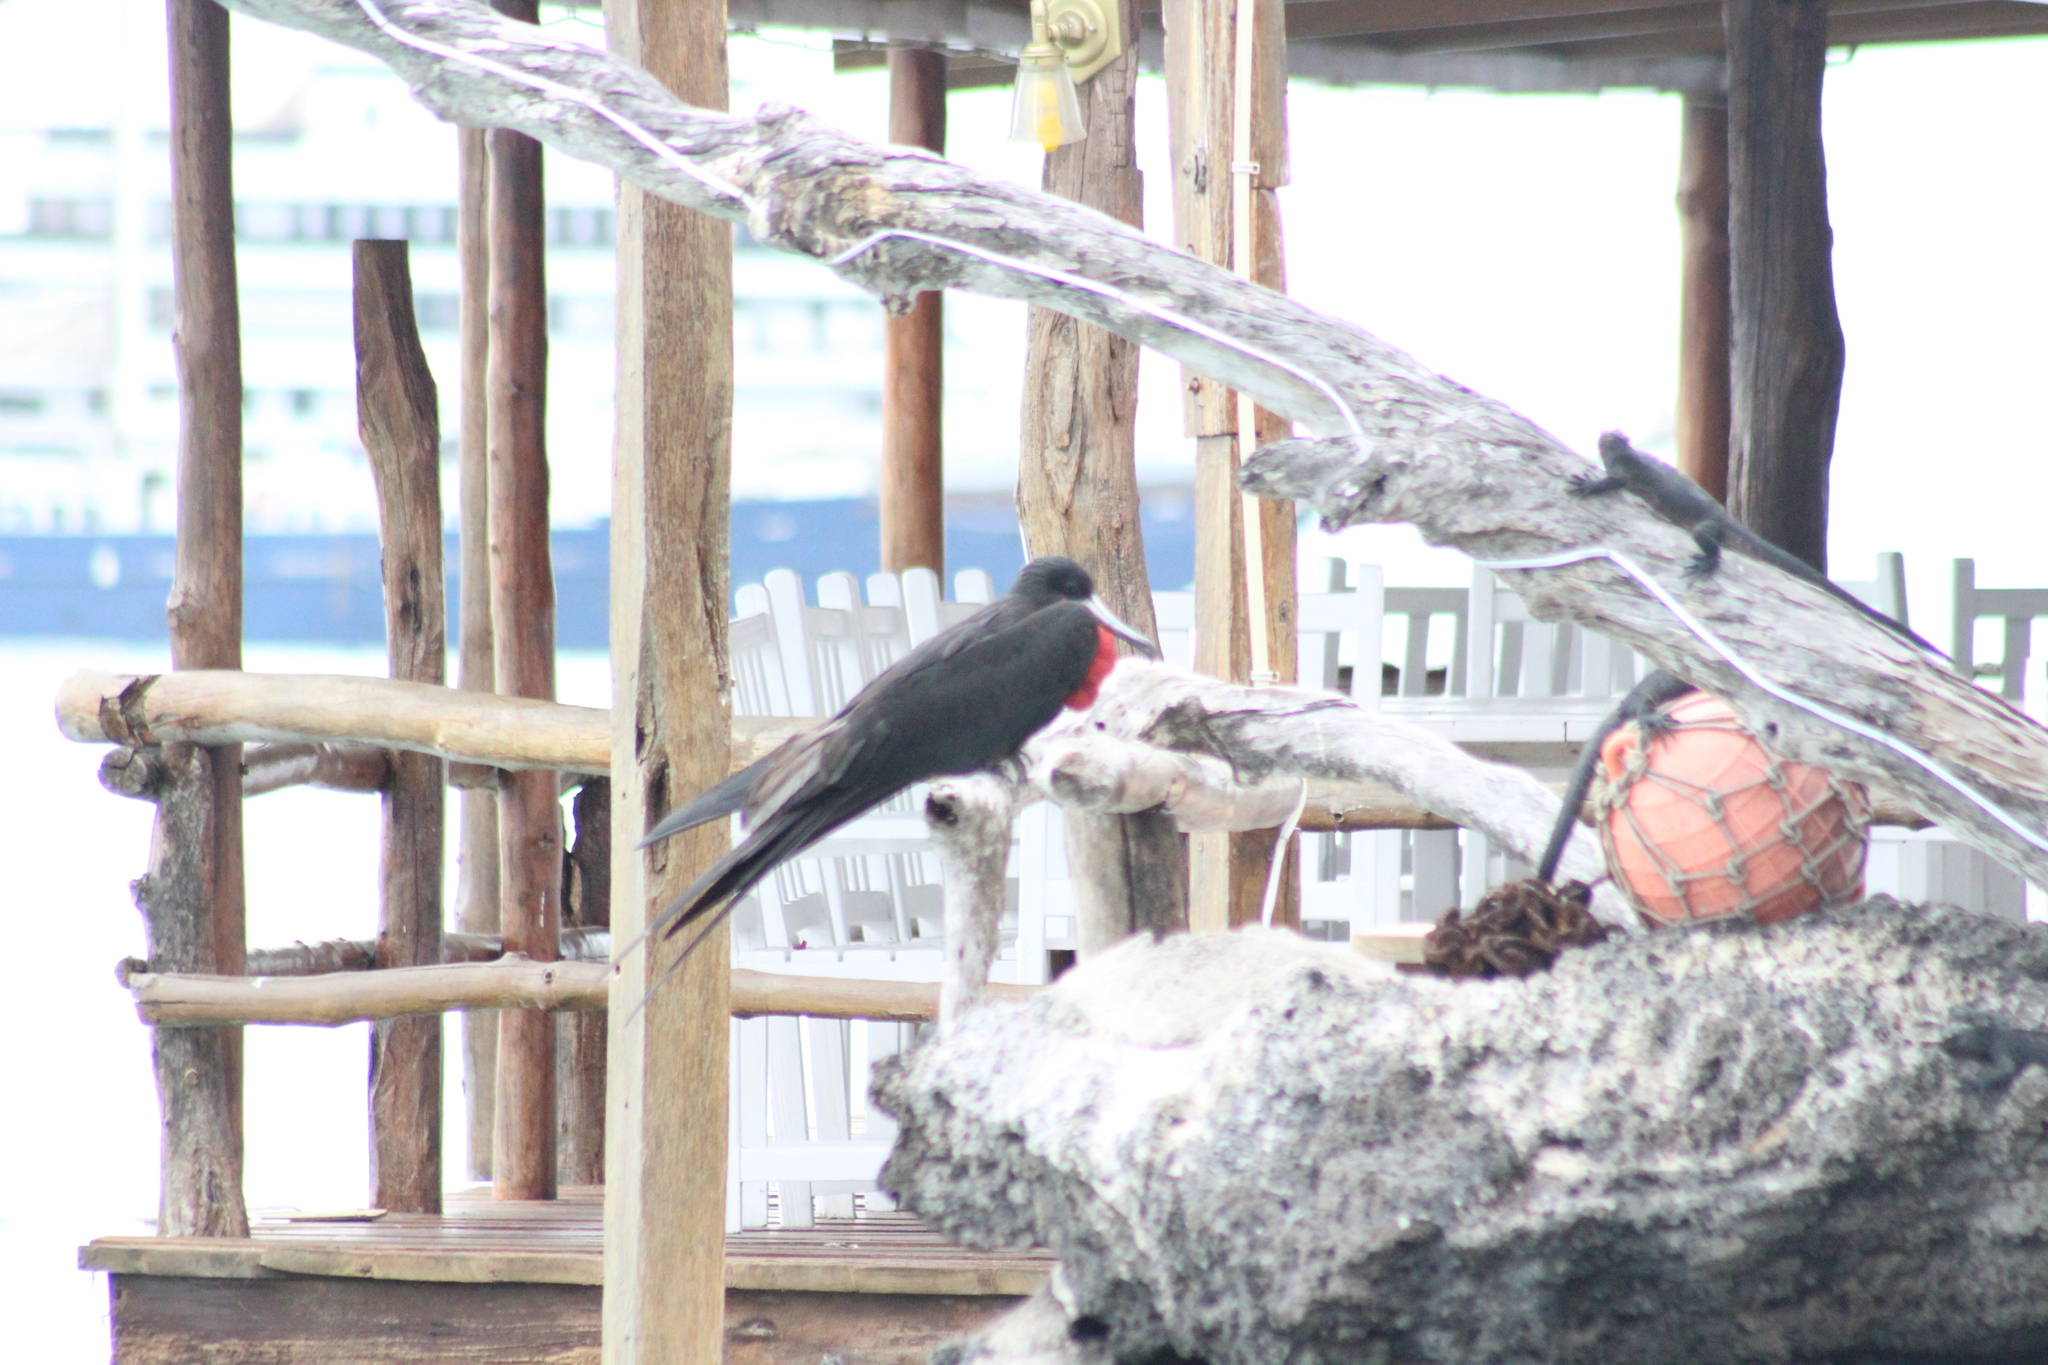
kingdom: Animalia
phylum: Chordata
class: Aves
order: Suliformes
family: Fregatidae
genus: Fregata
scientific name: Fregata magnificens
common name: Magnificent frigatebird
